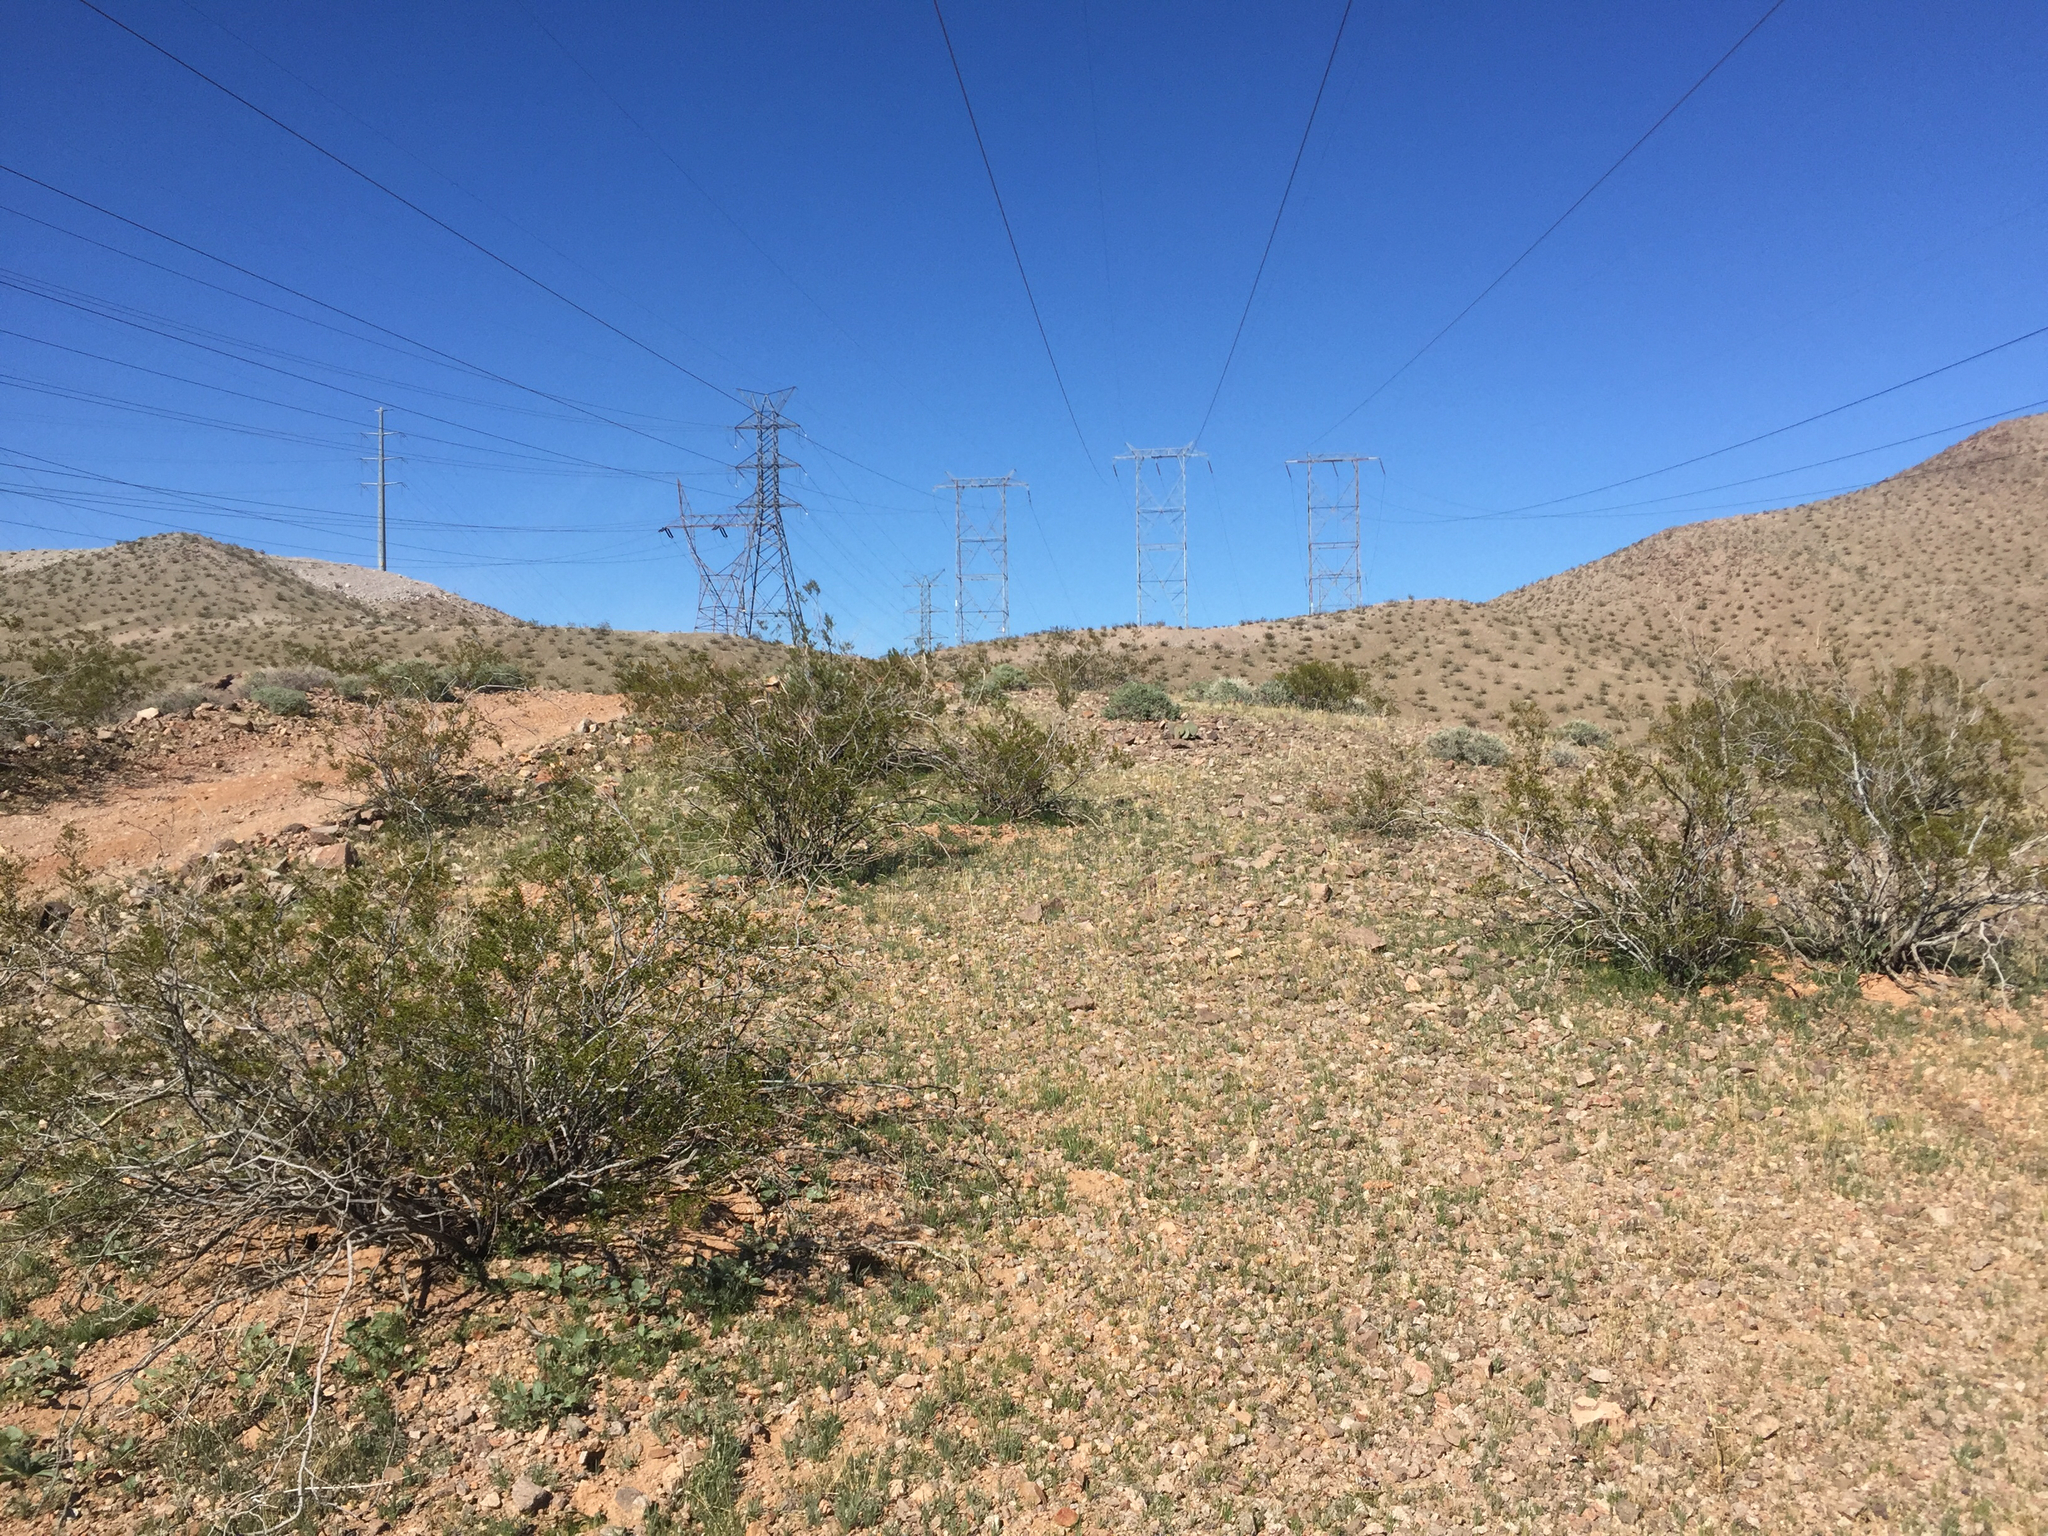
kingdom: Plantae
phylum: Tracheophyta
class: Magnoliopsida
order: Zygophyllales
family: Zygophyllaceae
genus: Larrea
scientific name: Larrea tridentata
